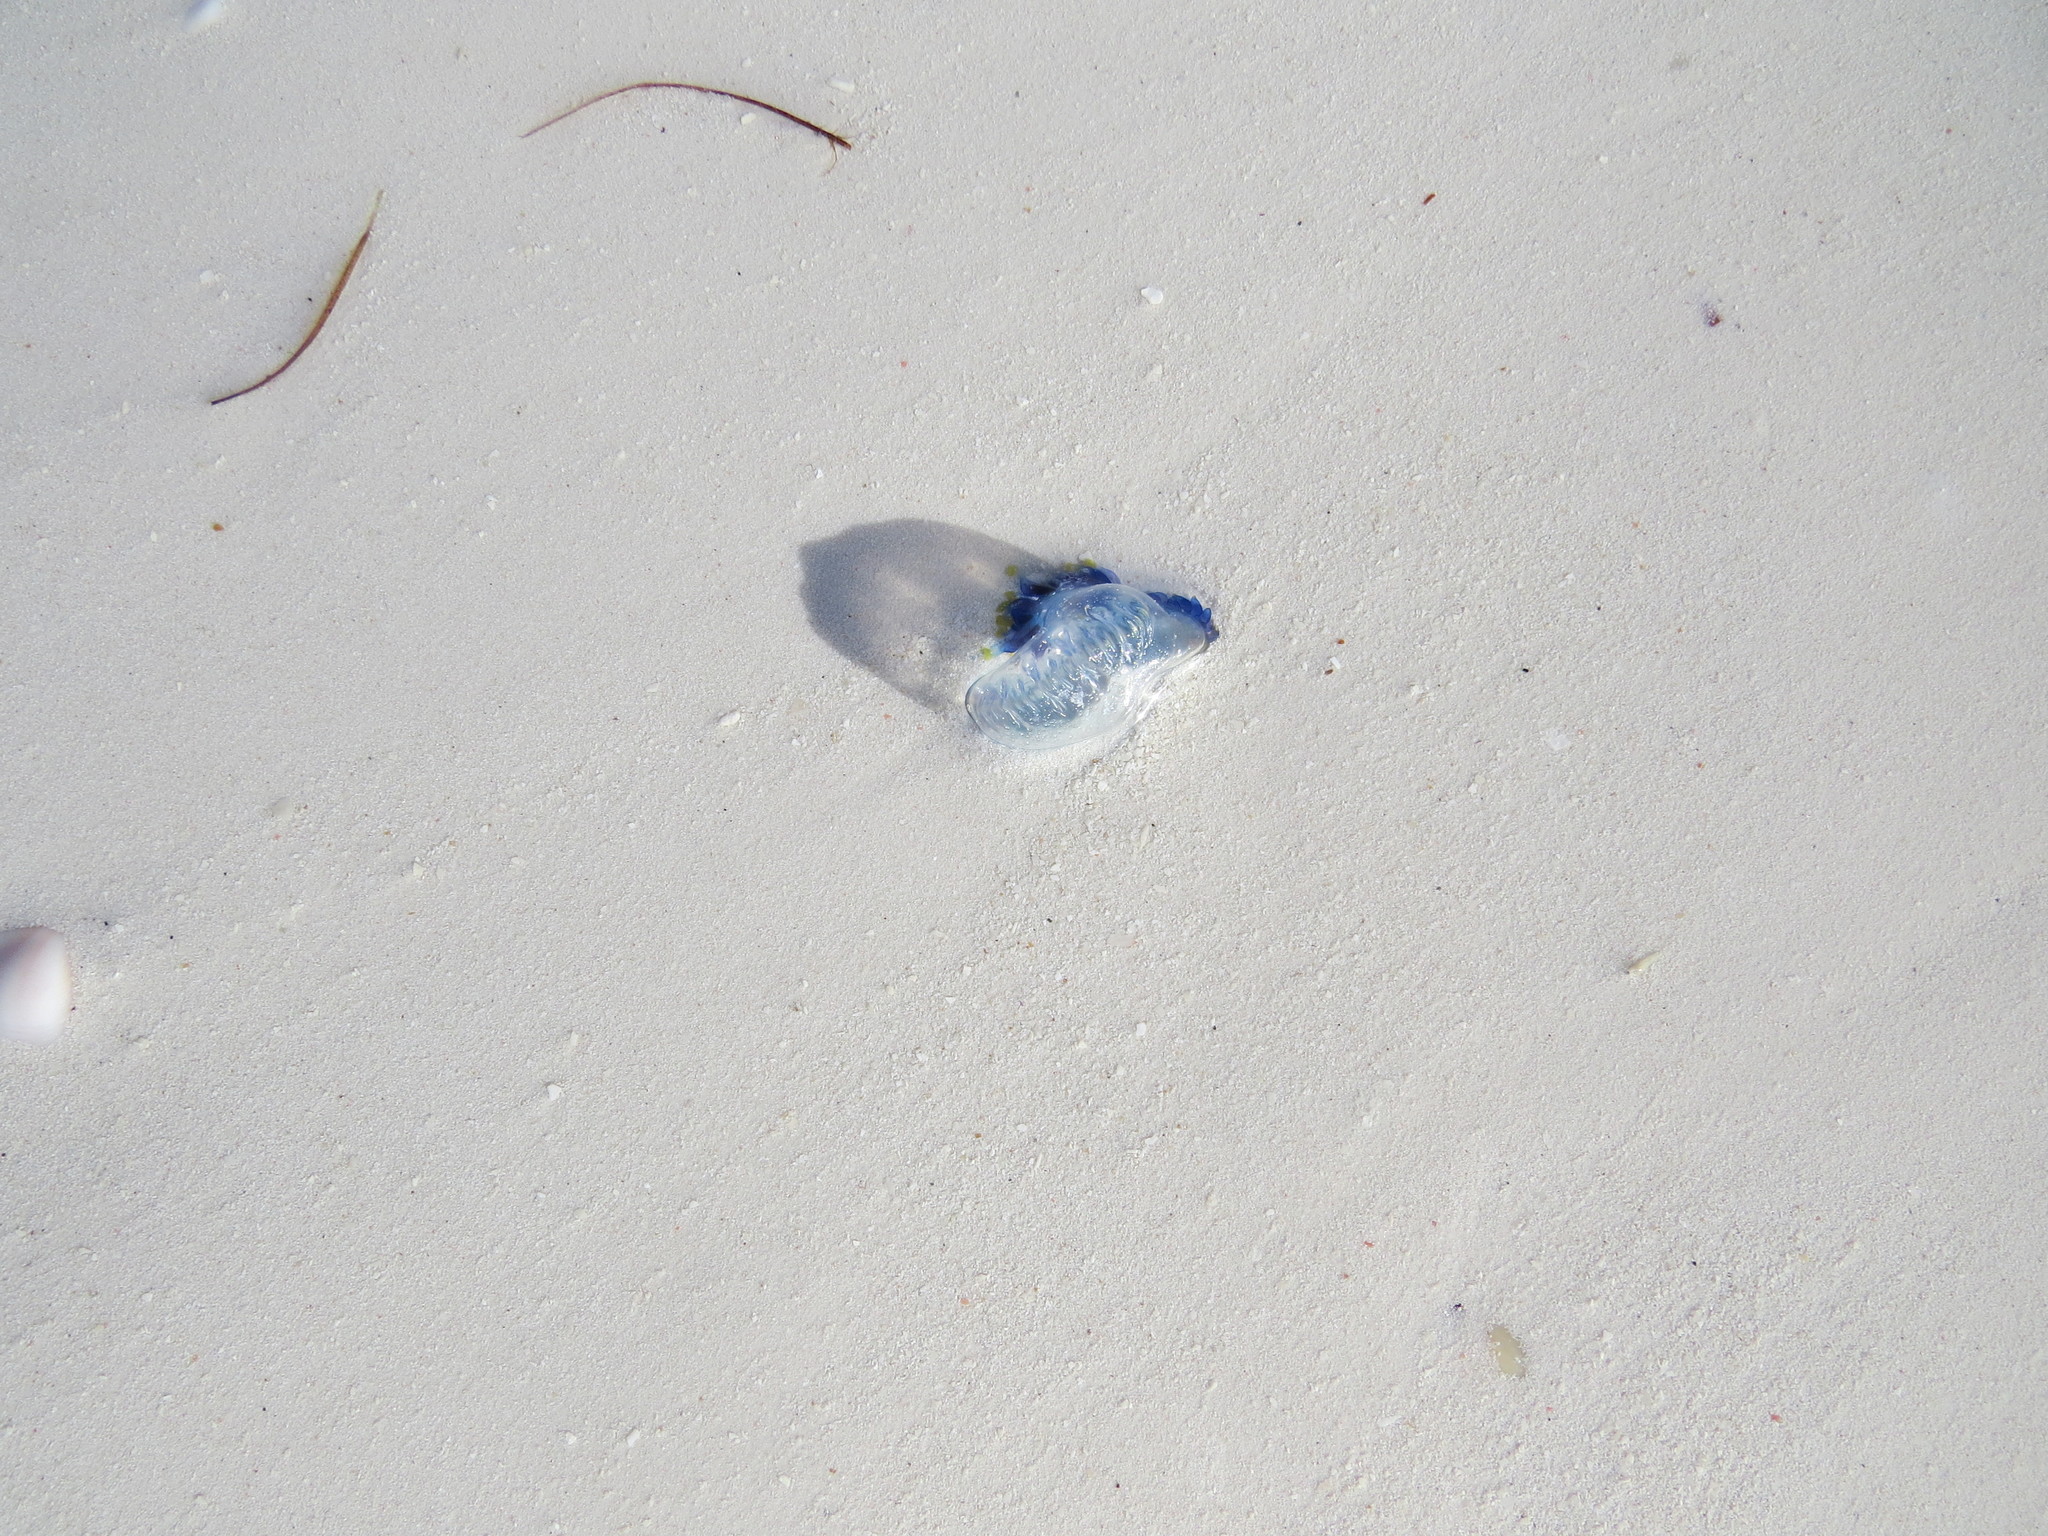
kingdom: Animalia
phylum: Cnidaria
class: Hydrozoa
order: Siphonophorae
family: Physaliidae
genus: Physalia
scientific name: Physalia physalis
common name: Portuguese man-of-war
